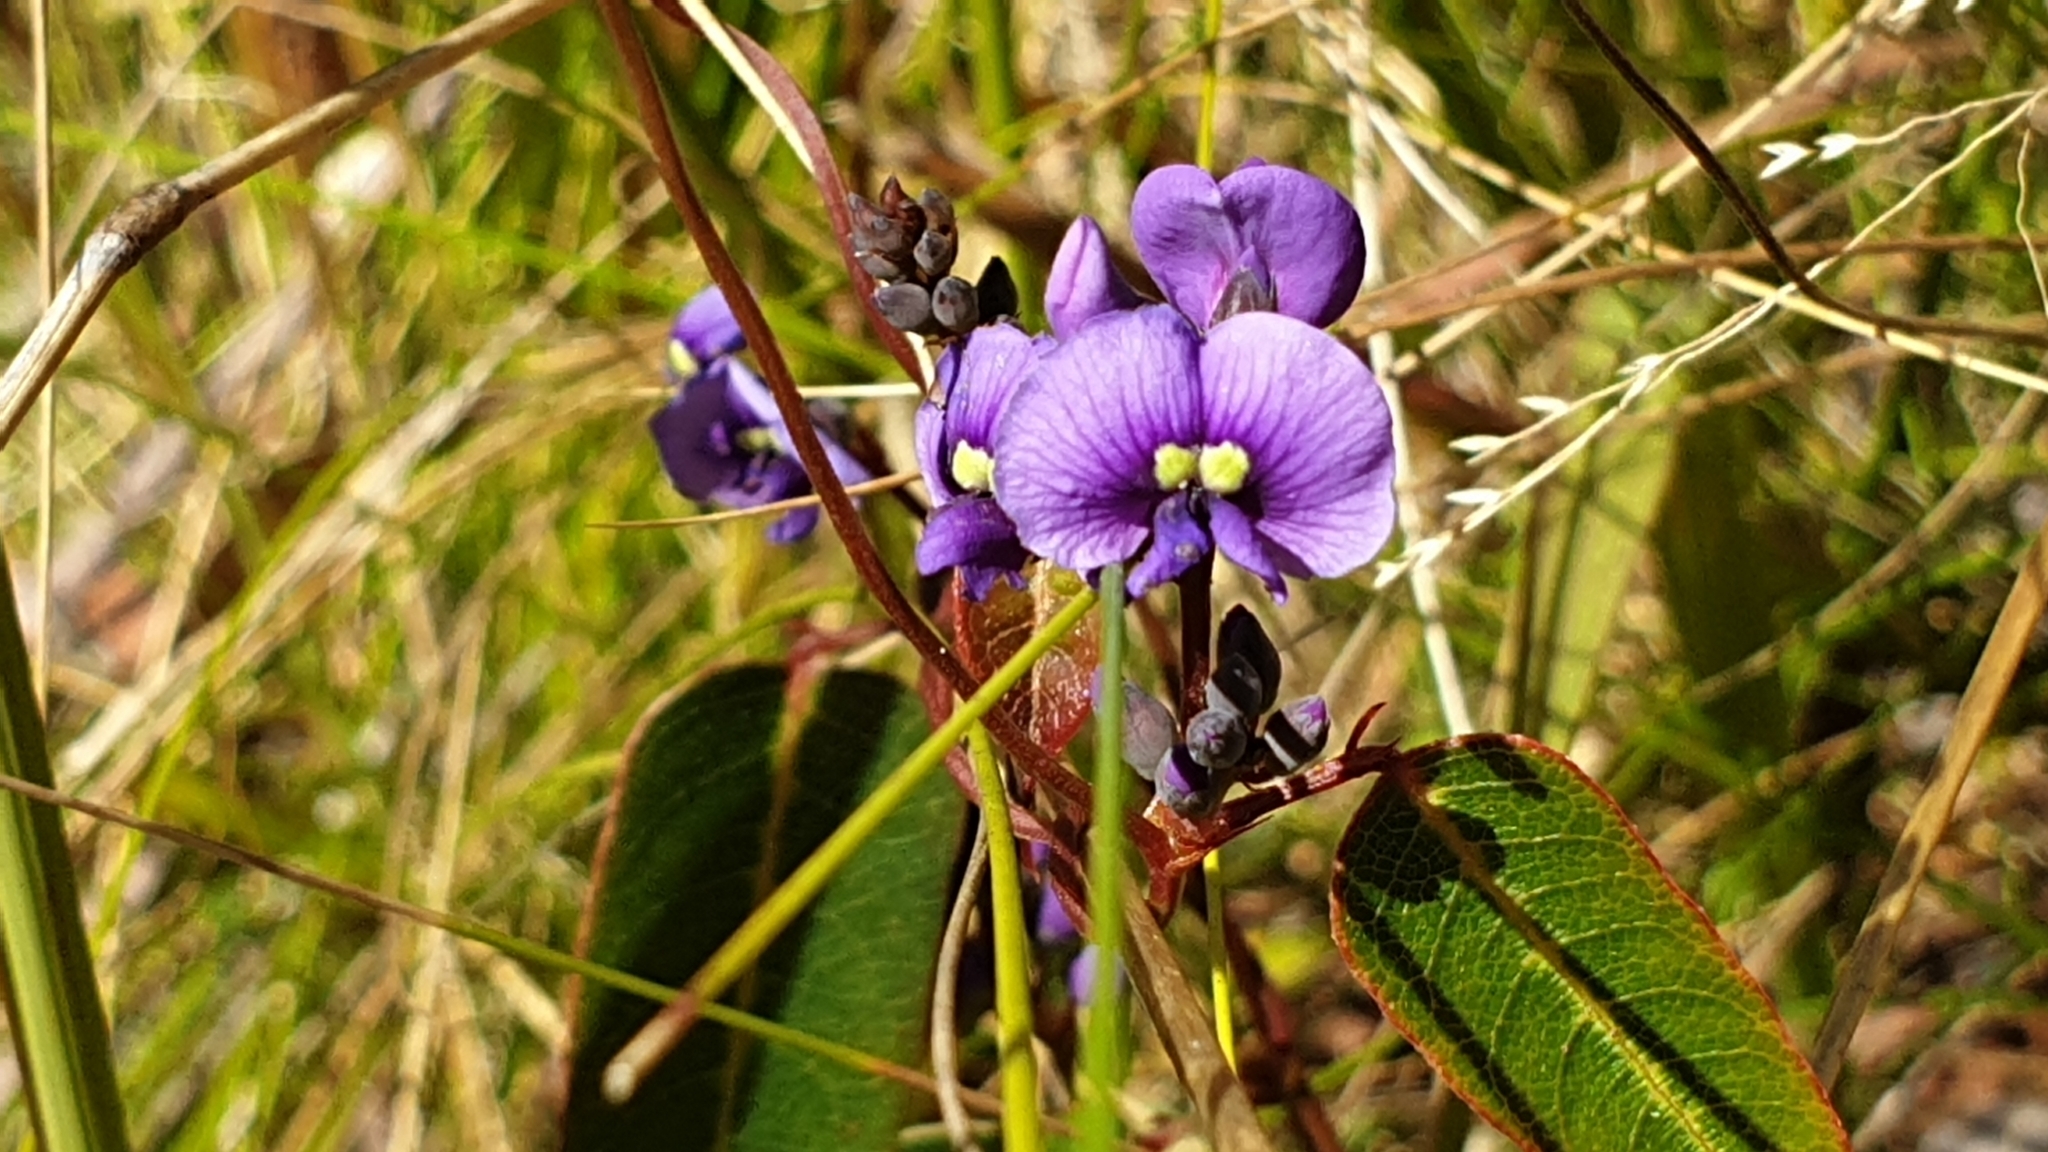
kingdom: Plantae
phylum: Tracheophyta
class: Magnoliopsida
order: Fabales
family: Fabaceae
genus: Hardenbergia
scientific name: Hardenbergia violacea
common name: Coral-pea
